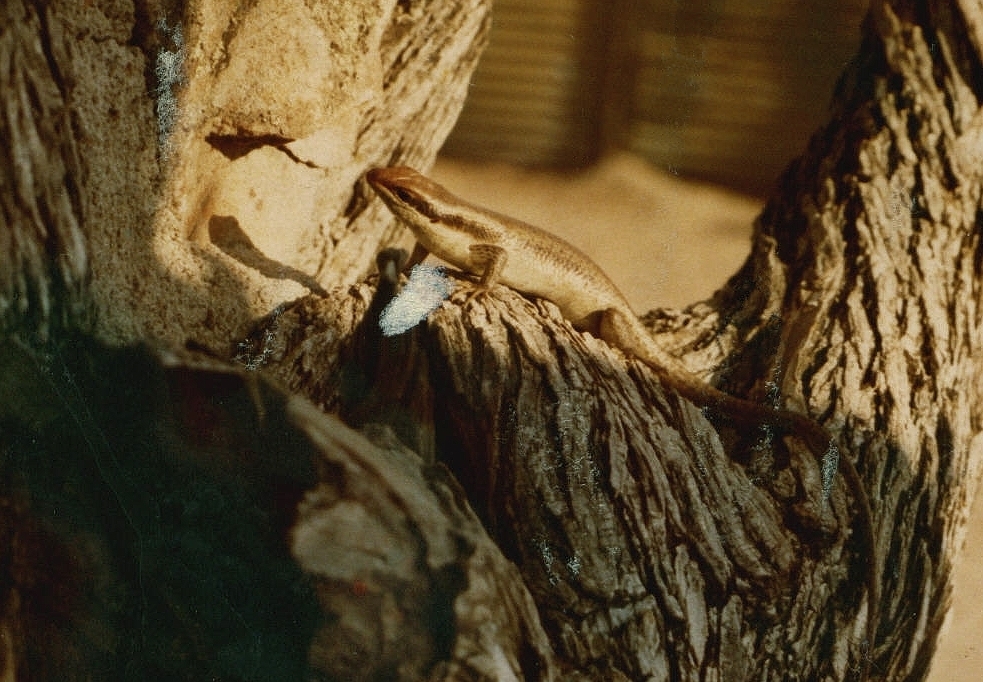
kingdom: Animalia
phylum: Chordata
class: Squamata
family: Scincidae
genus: Trachylepis
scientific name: Trachylepis wahlbergii
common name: Wahlberg’s striped skink
